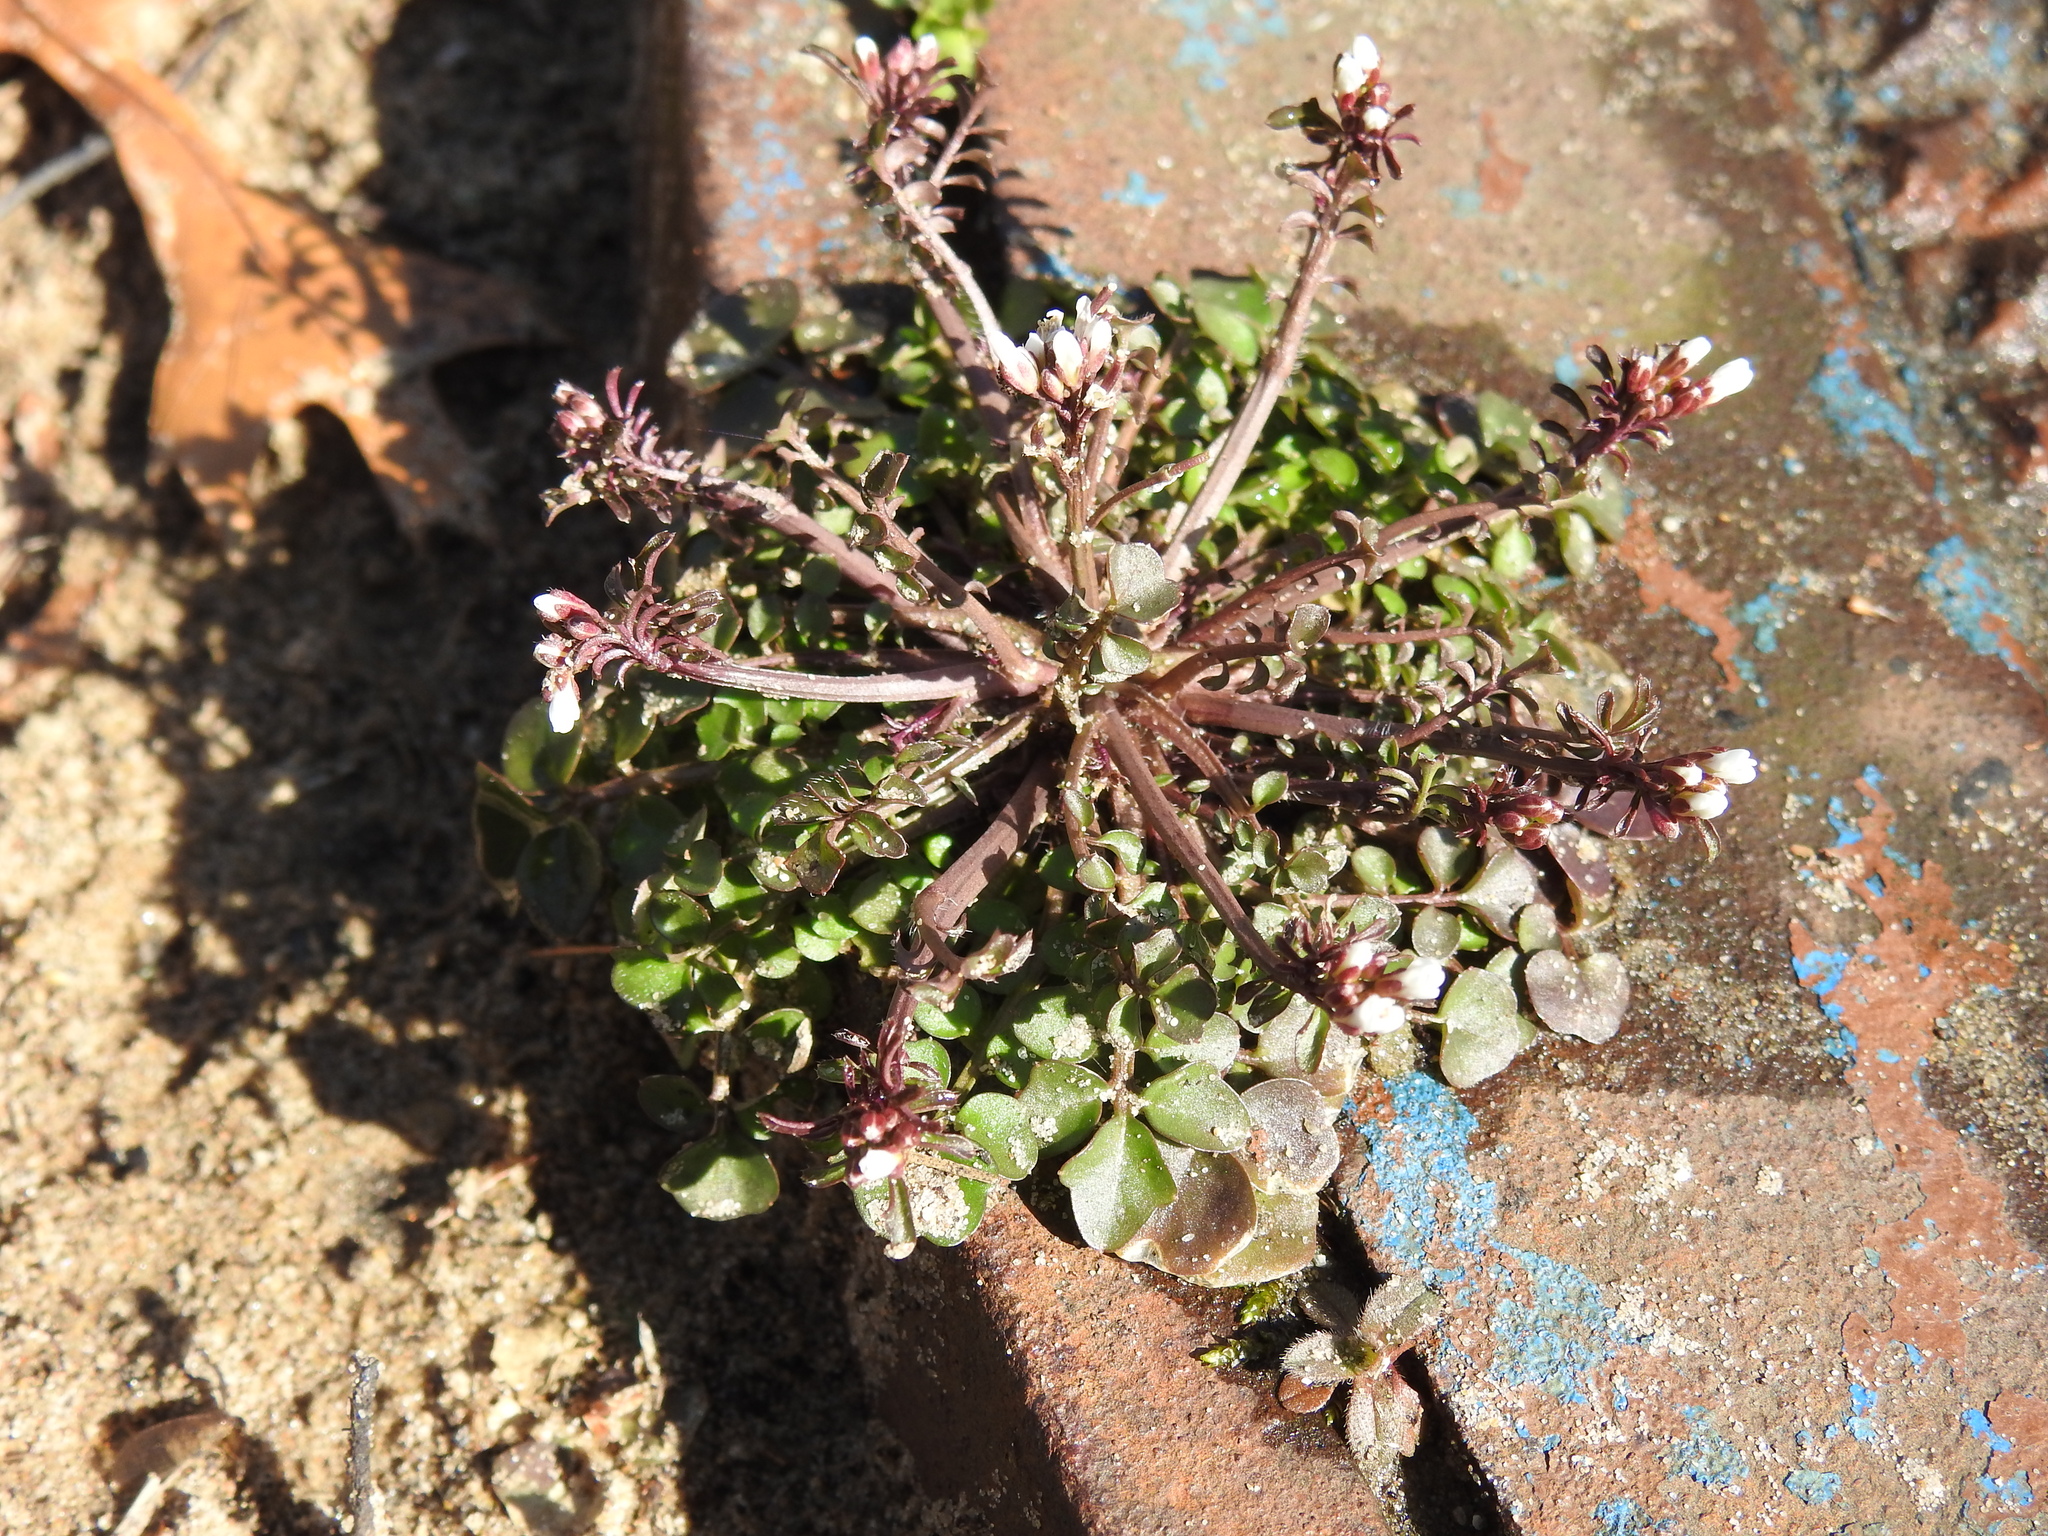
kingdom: Plantae
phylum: Tracheophyta
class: Magnoliopsida
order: Brassicales
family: Brassicaceae
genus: Cardamine
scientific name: Cardamine hirsuta
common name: Hairy bittercress
